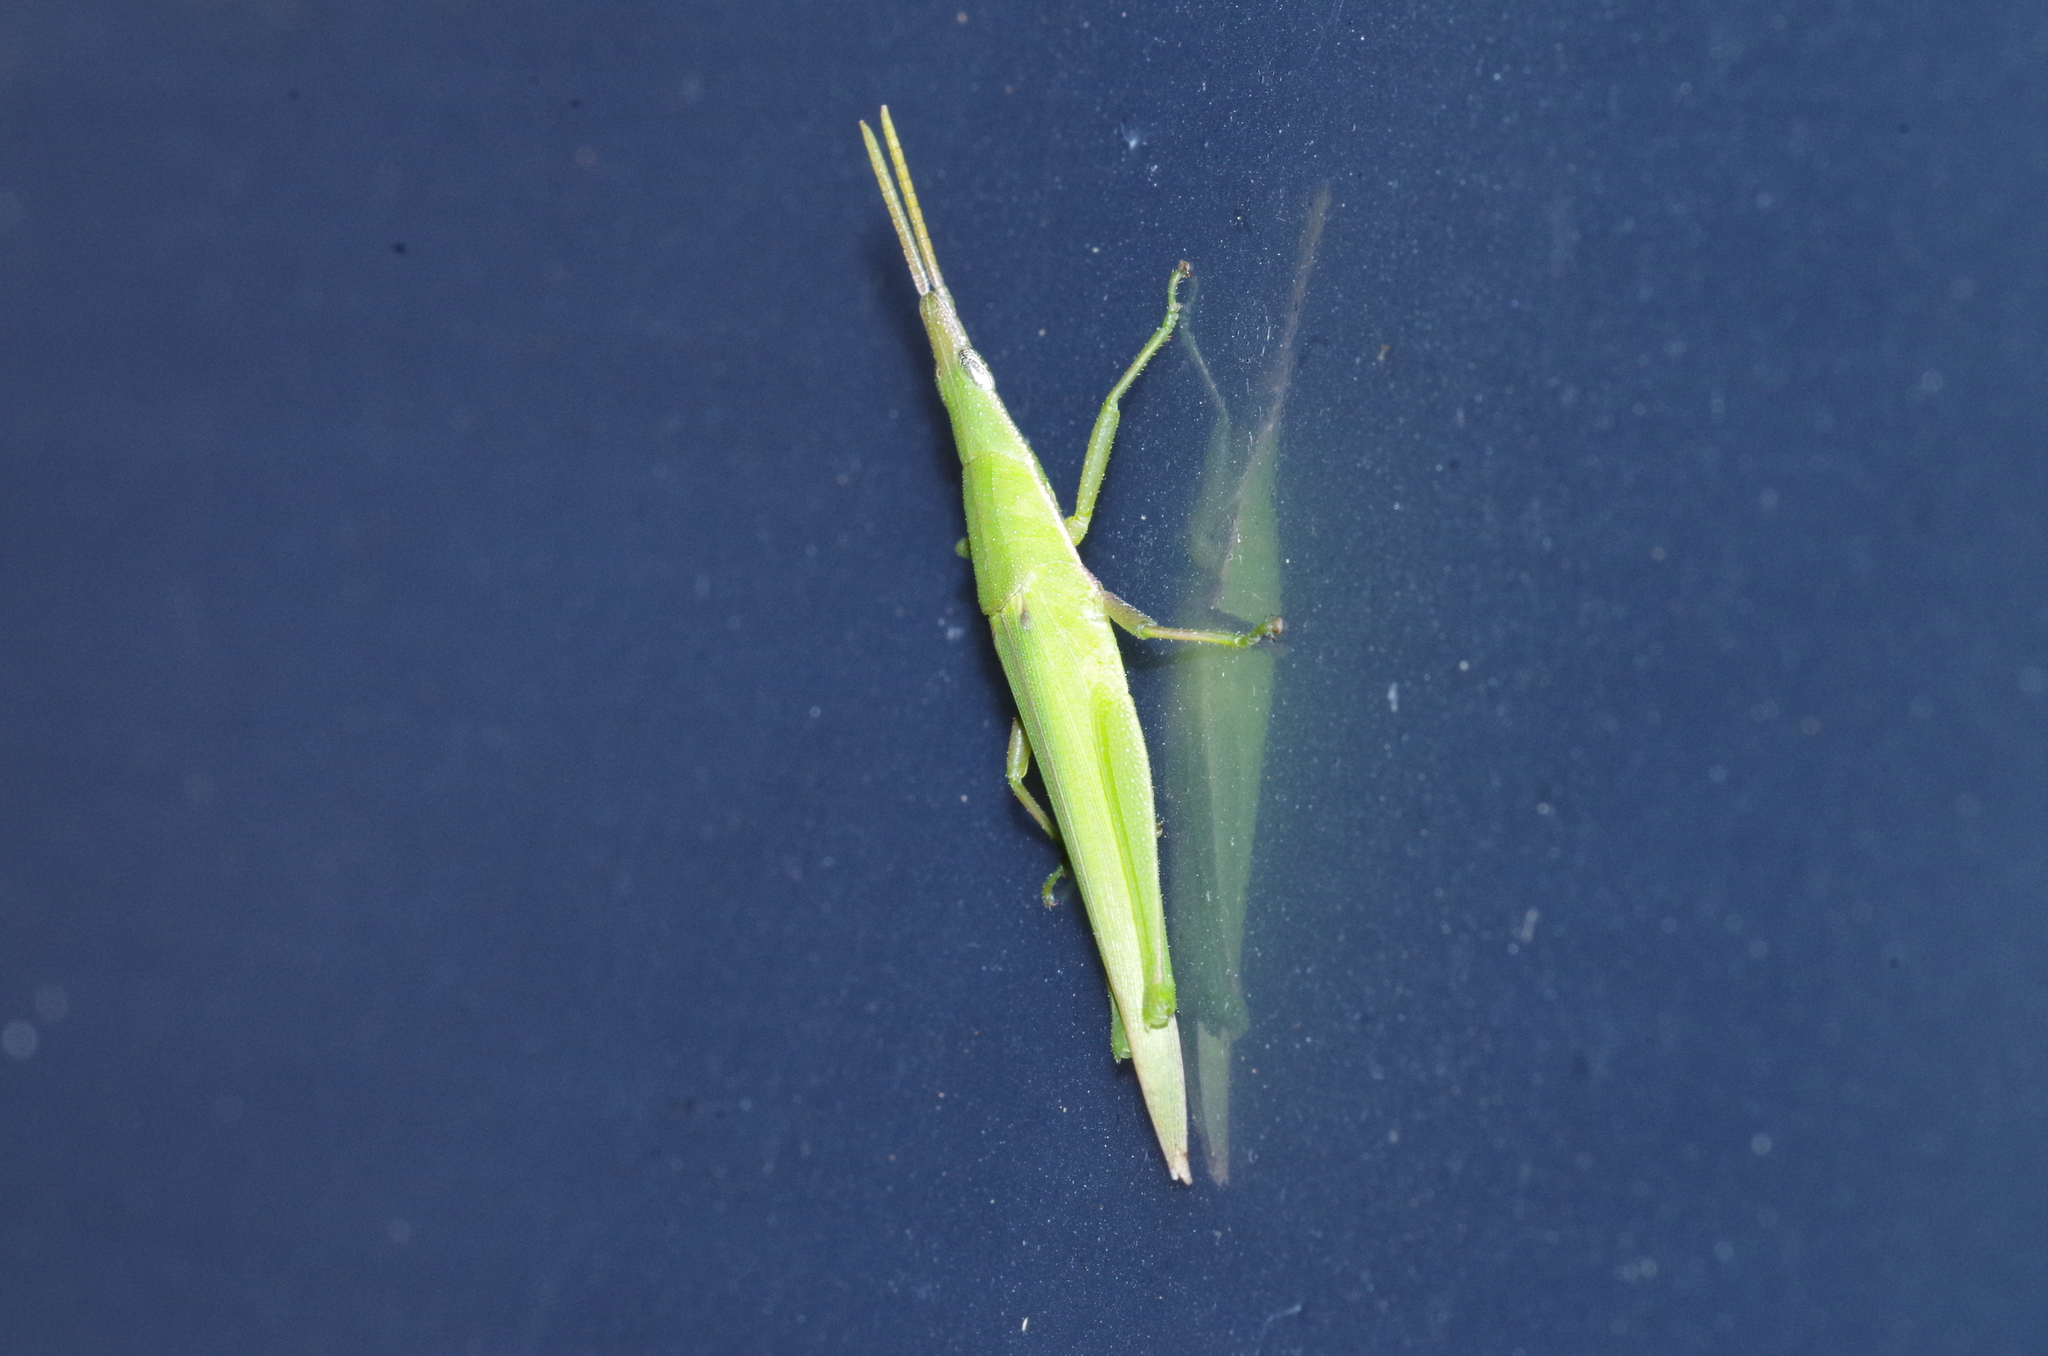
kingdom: Animalia
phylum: Arthropoda
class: Insecta
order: Orthoptera
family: Pyrgomorphidae
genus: Atractomorpha
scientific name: Atractomorpha lata
